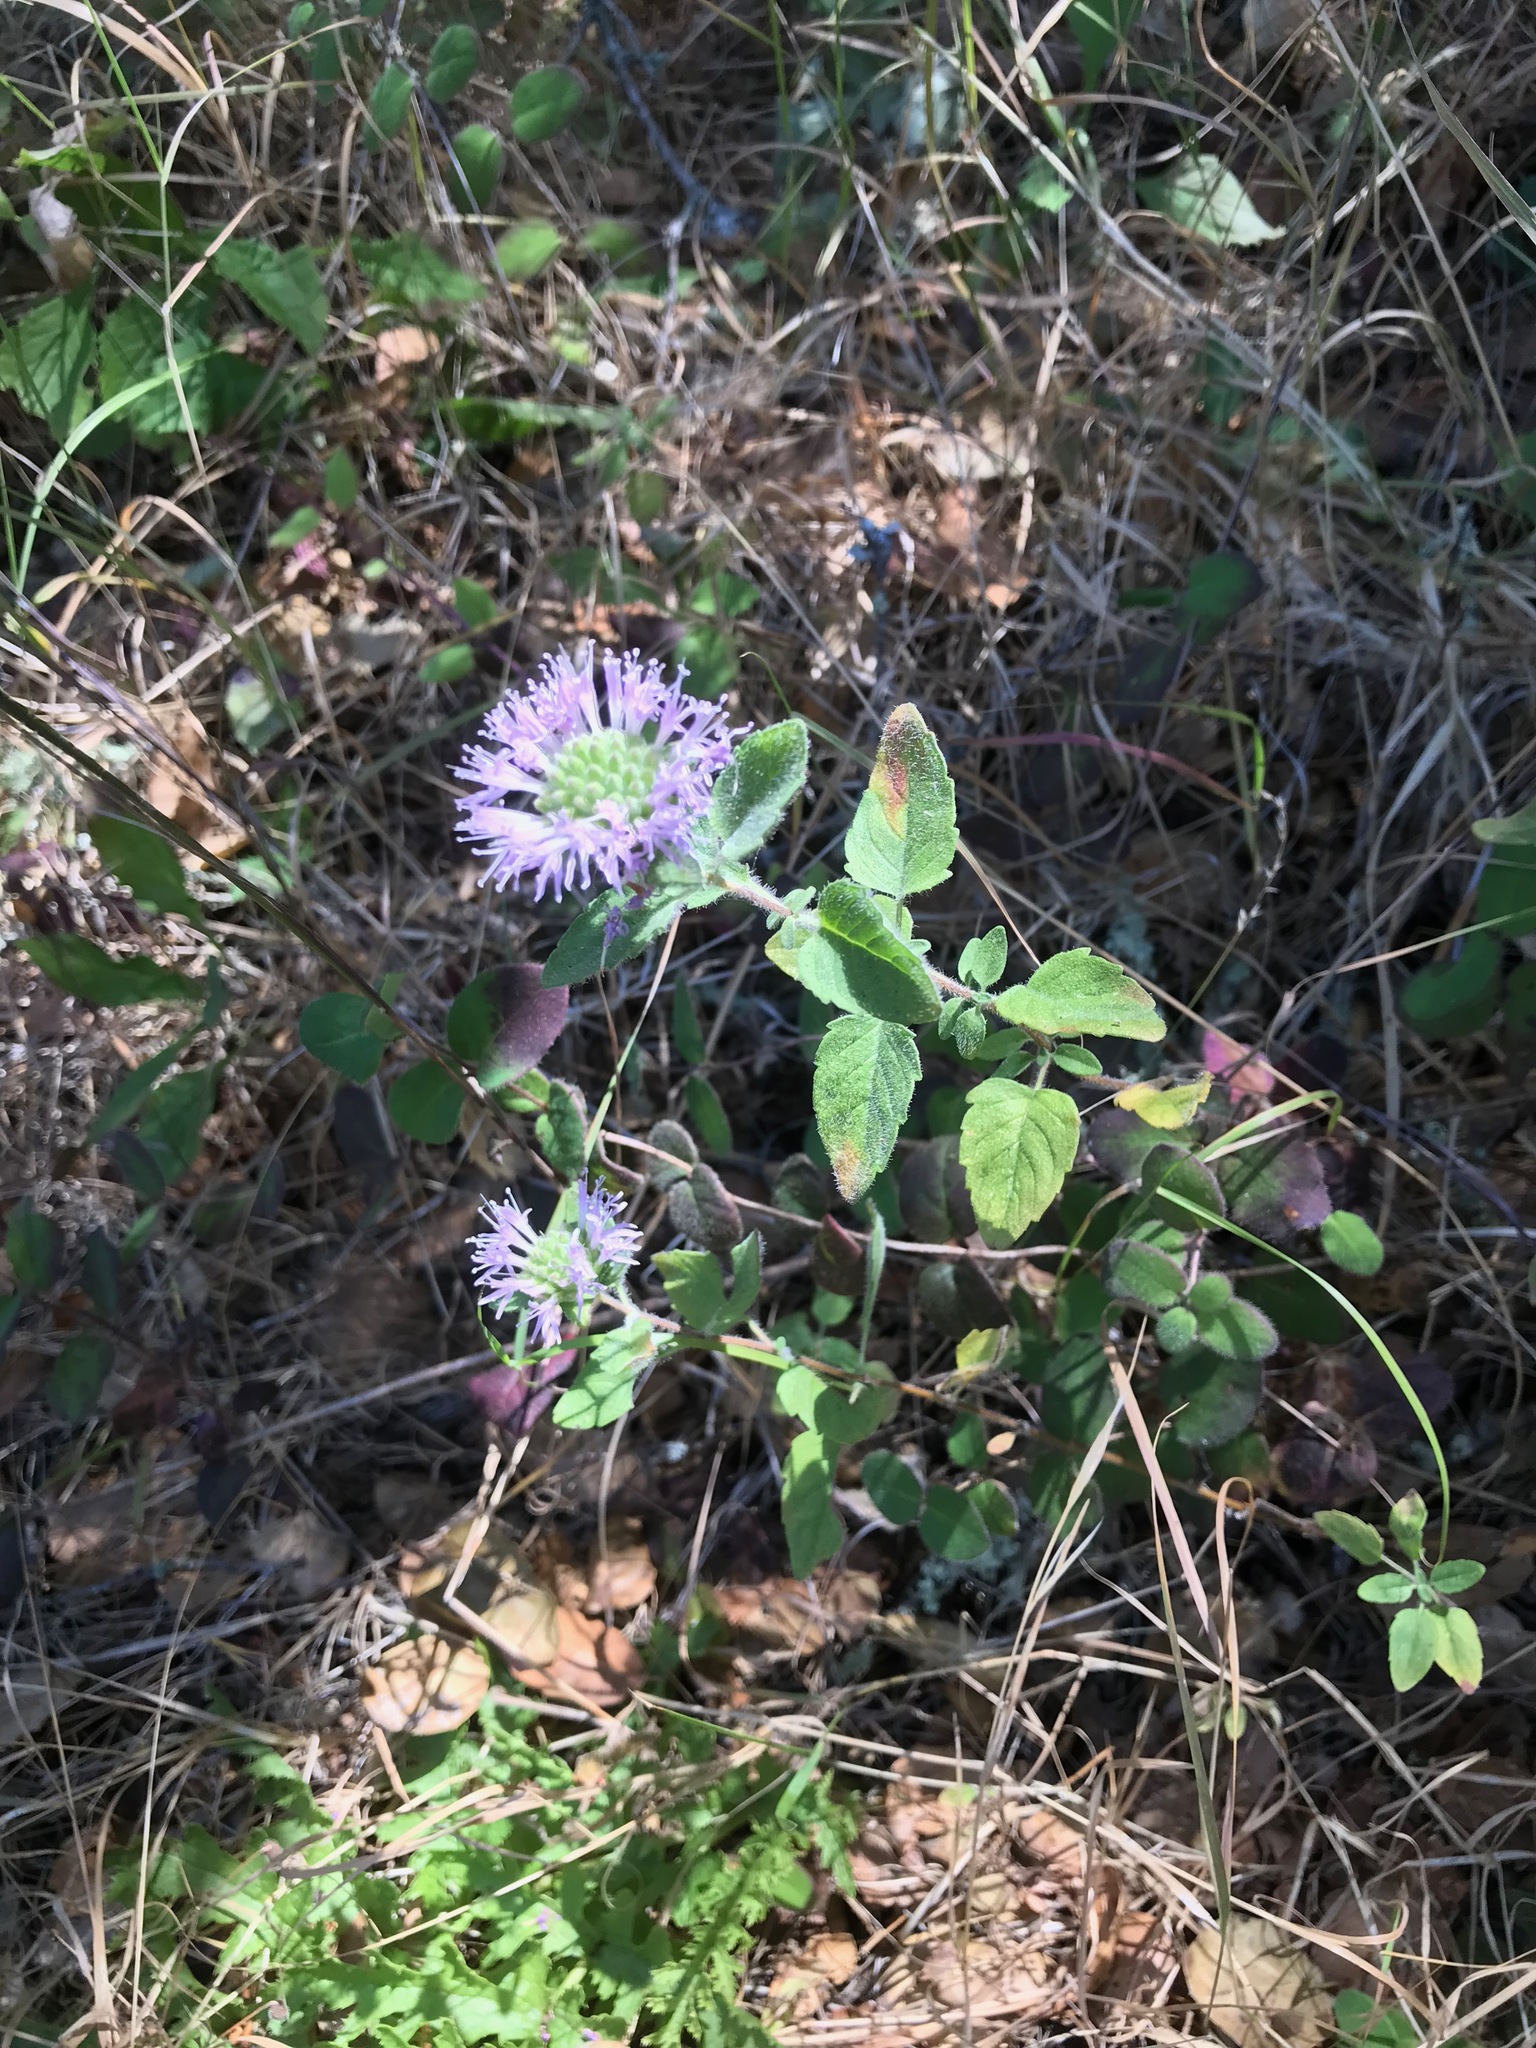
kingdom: Plantae
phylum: Tracheophyta
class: Magnoliopsida
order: Lamiales
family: Lamiaceae
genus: Monardella
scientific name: Monardella odoratissima
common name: Pacific monardella
